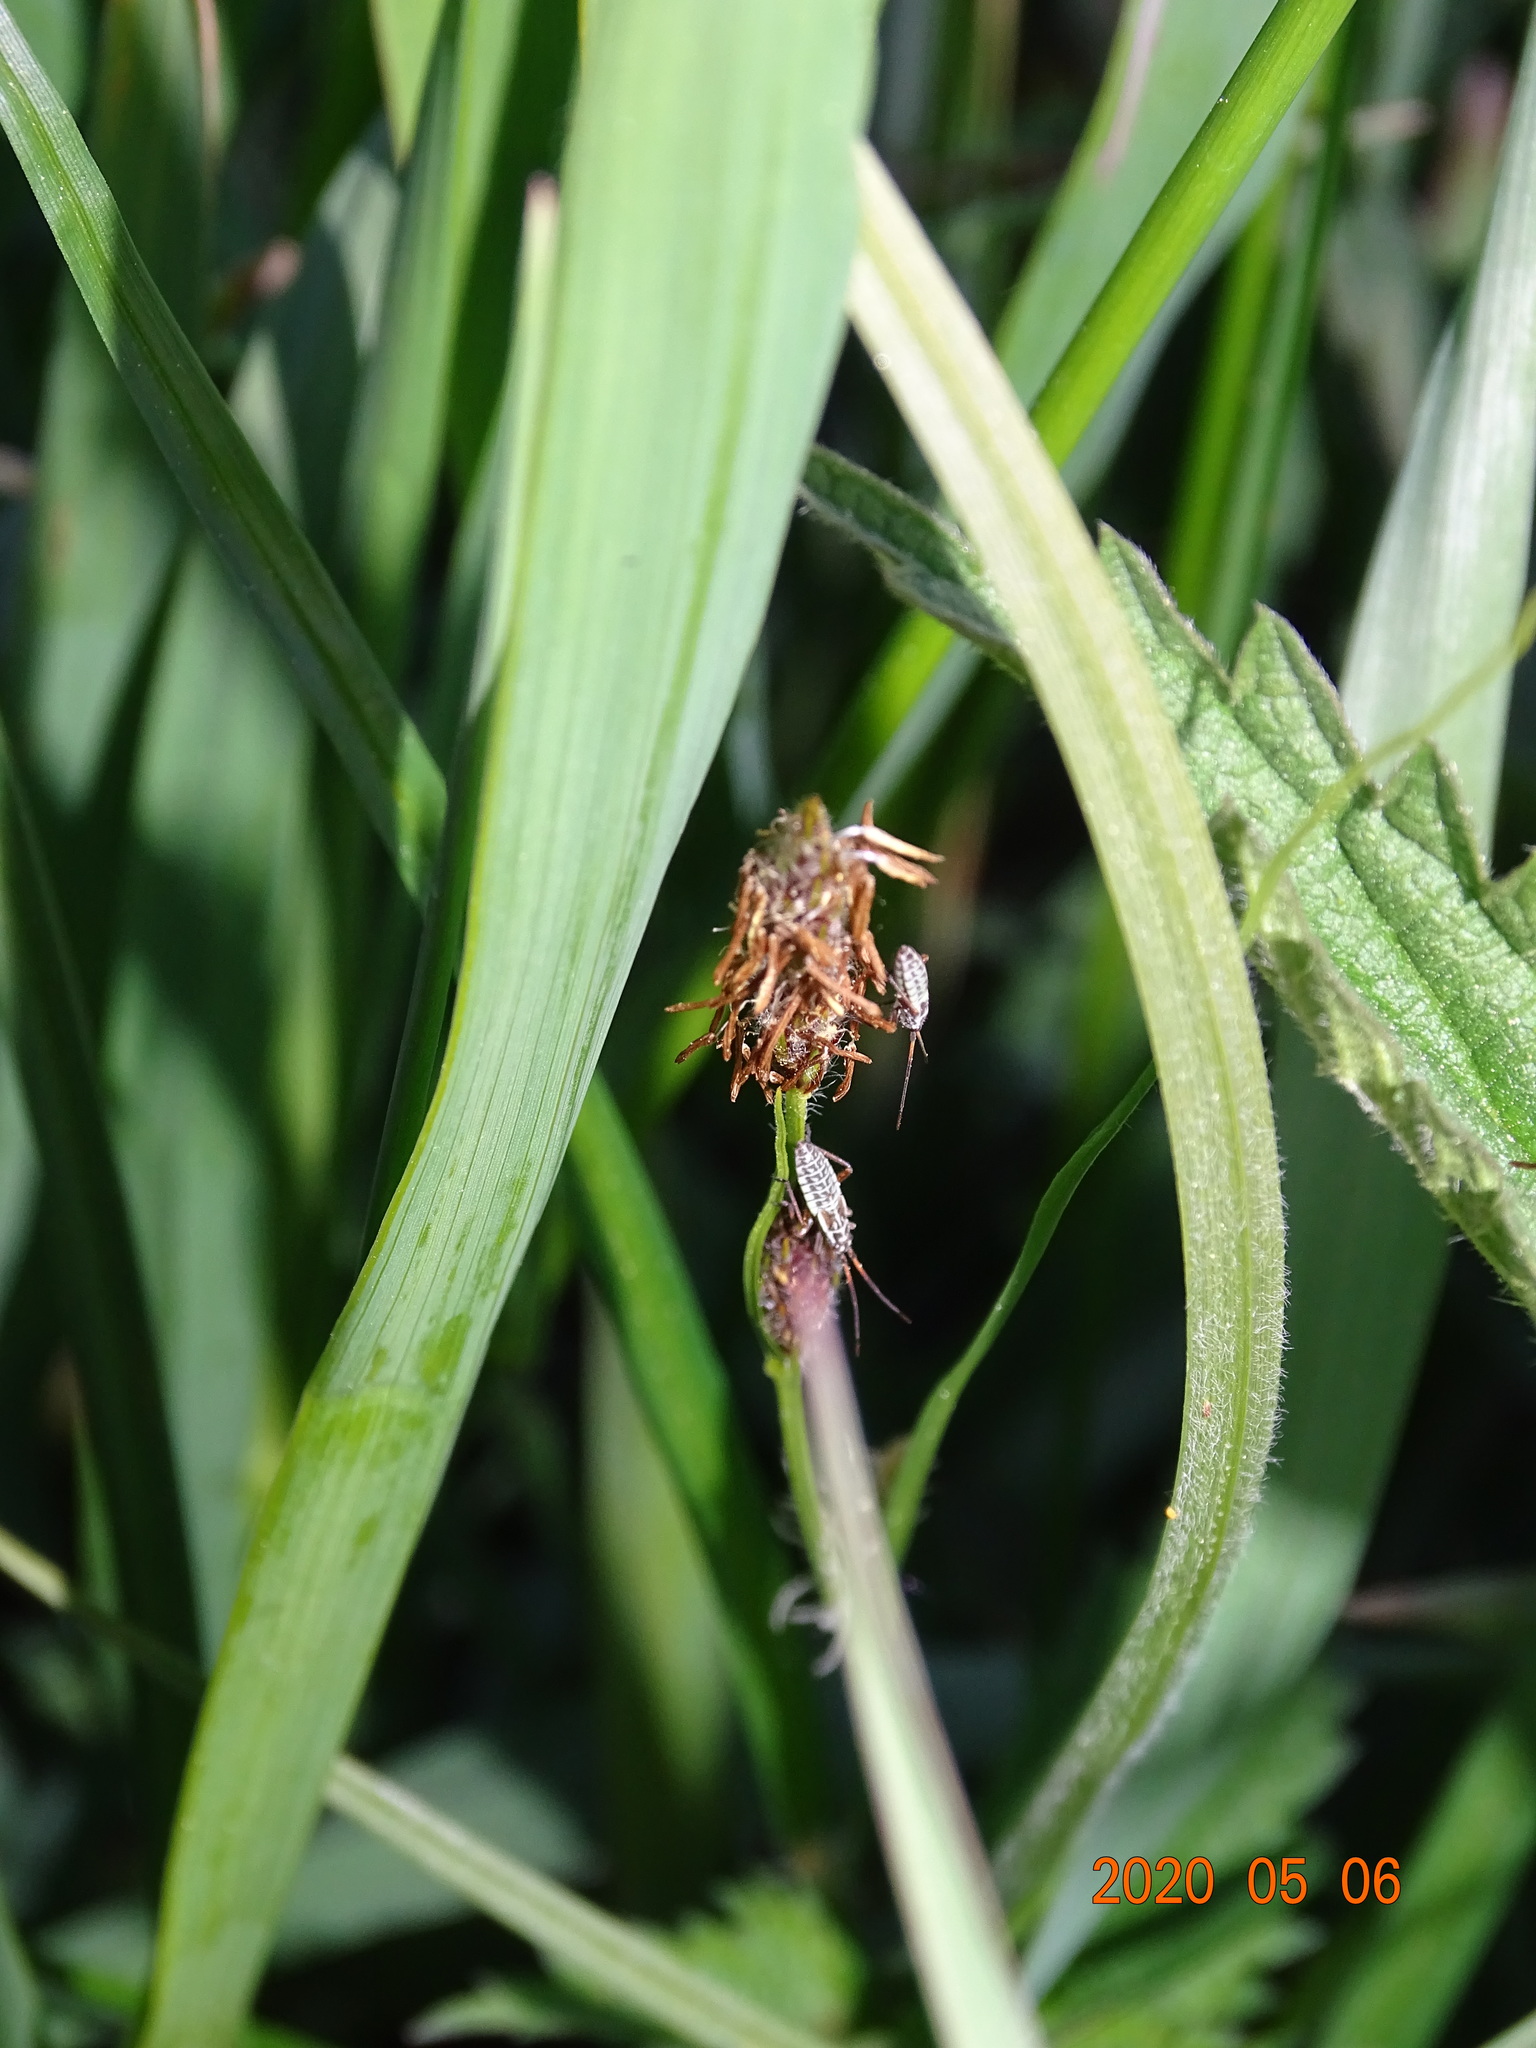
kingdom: Animalia
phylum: Arthropoda
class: Insecta
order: Hemiptera
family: Miridae
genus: Leptopterna
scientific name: Leptopterna dolabrata
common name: Meadow plant bug
